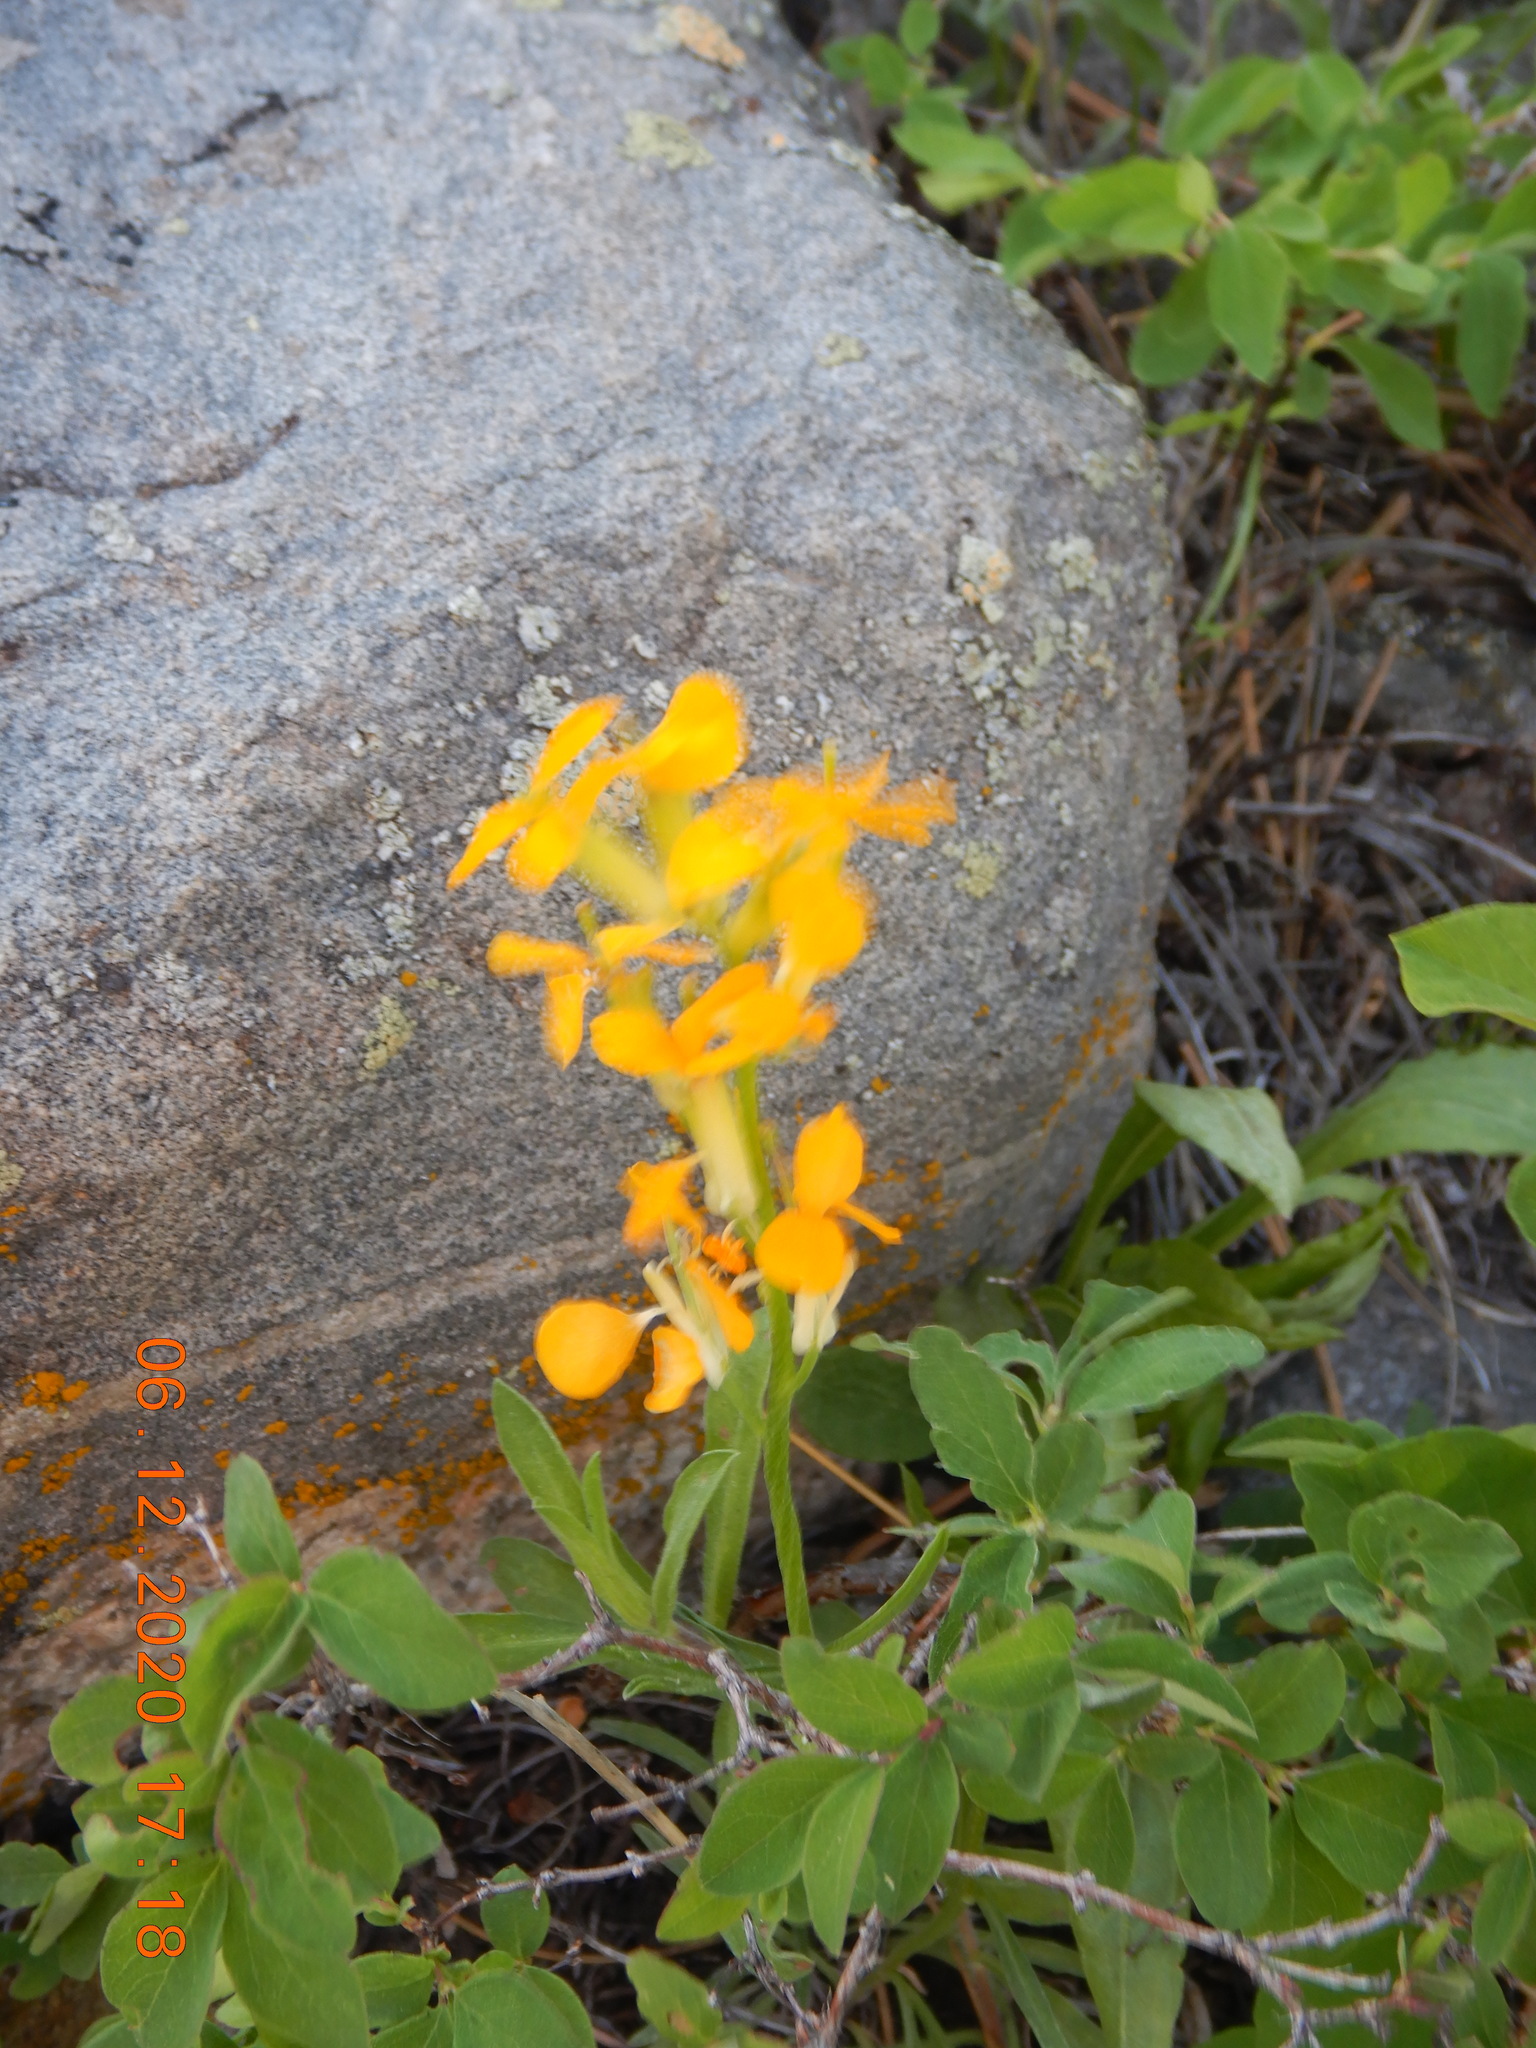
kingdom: Plantae
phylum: Tracheophyta
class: Magnoliopsida
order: Brassicales
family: Brassicaceae
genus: Erysimum
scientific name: Erysimum capitatum
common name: Western wallflower
